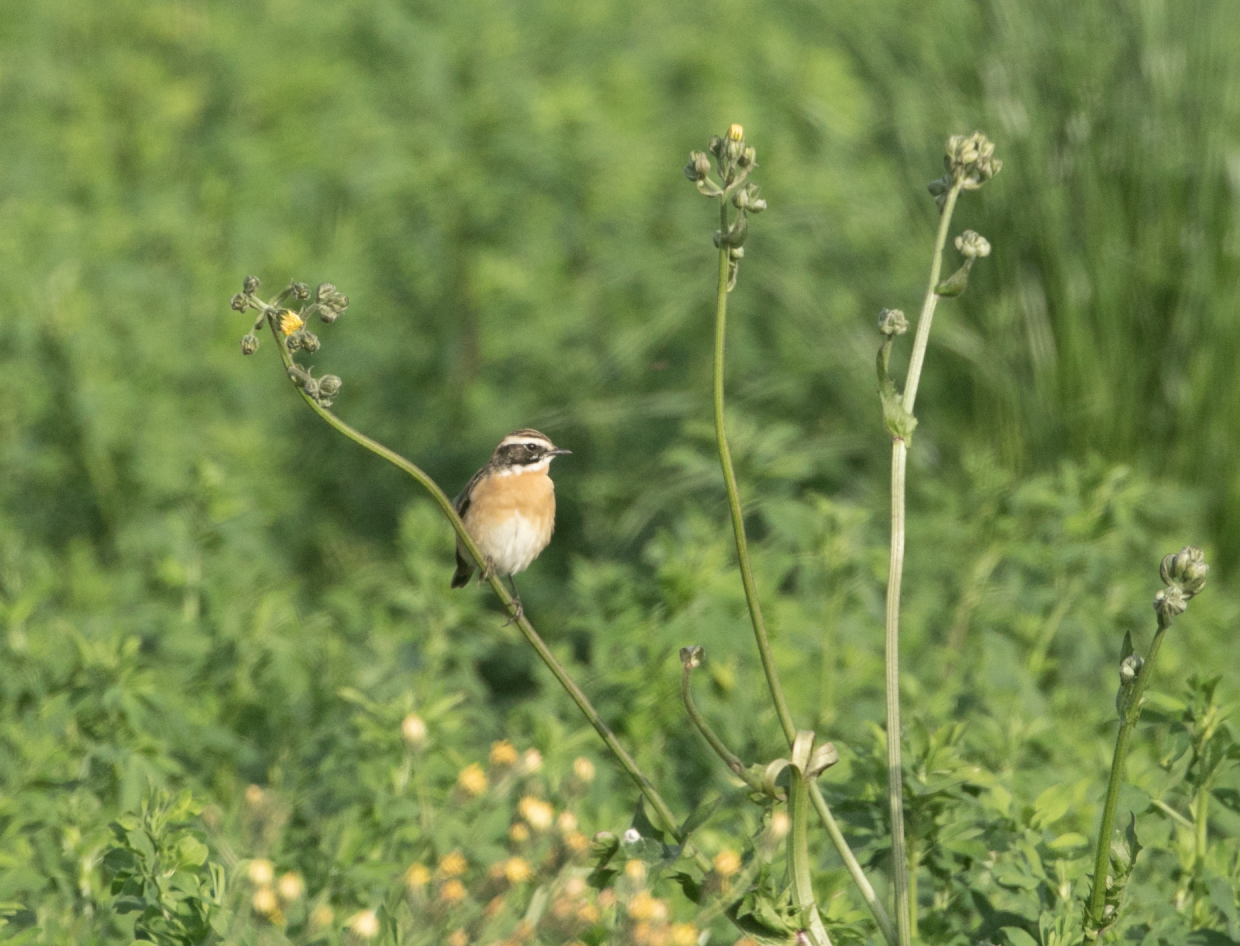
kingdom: Animalia
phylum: Chordata
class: Aves
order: Passeriformes
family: Muscicapidae
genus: Saxicola
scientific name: Saxicola rubetra
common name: Whinchat
